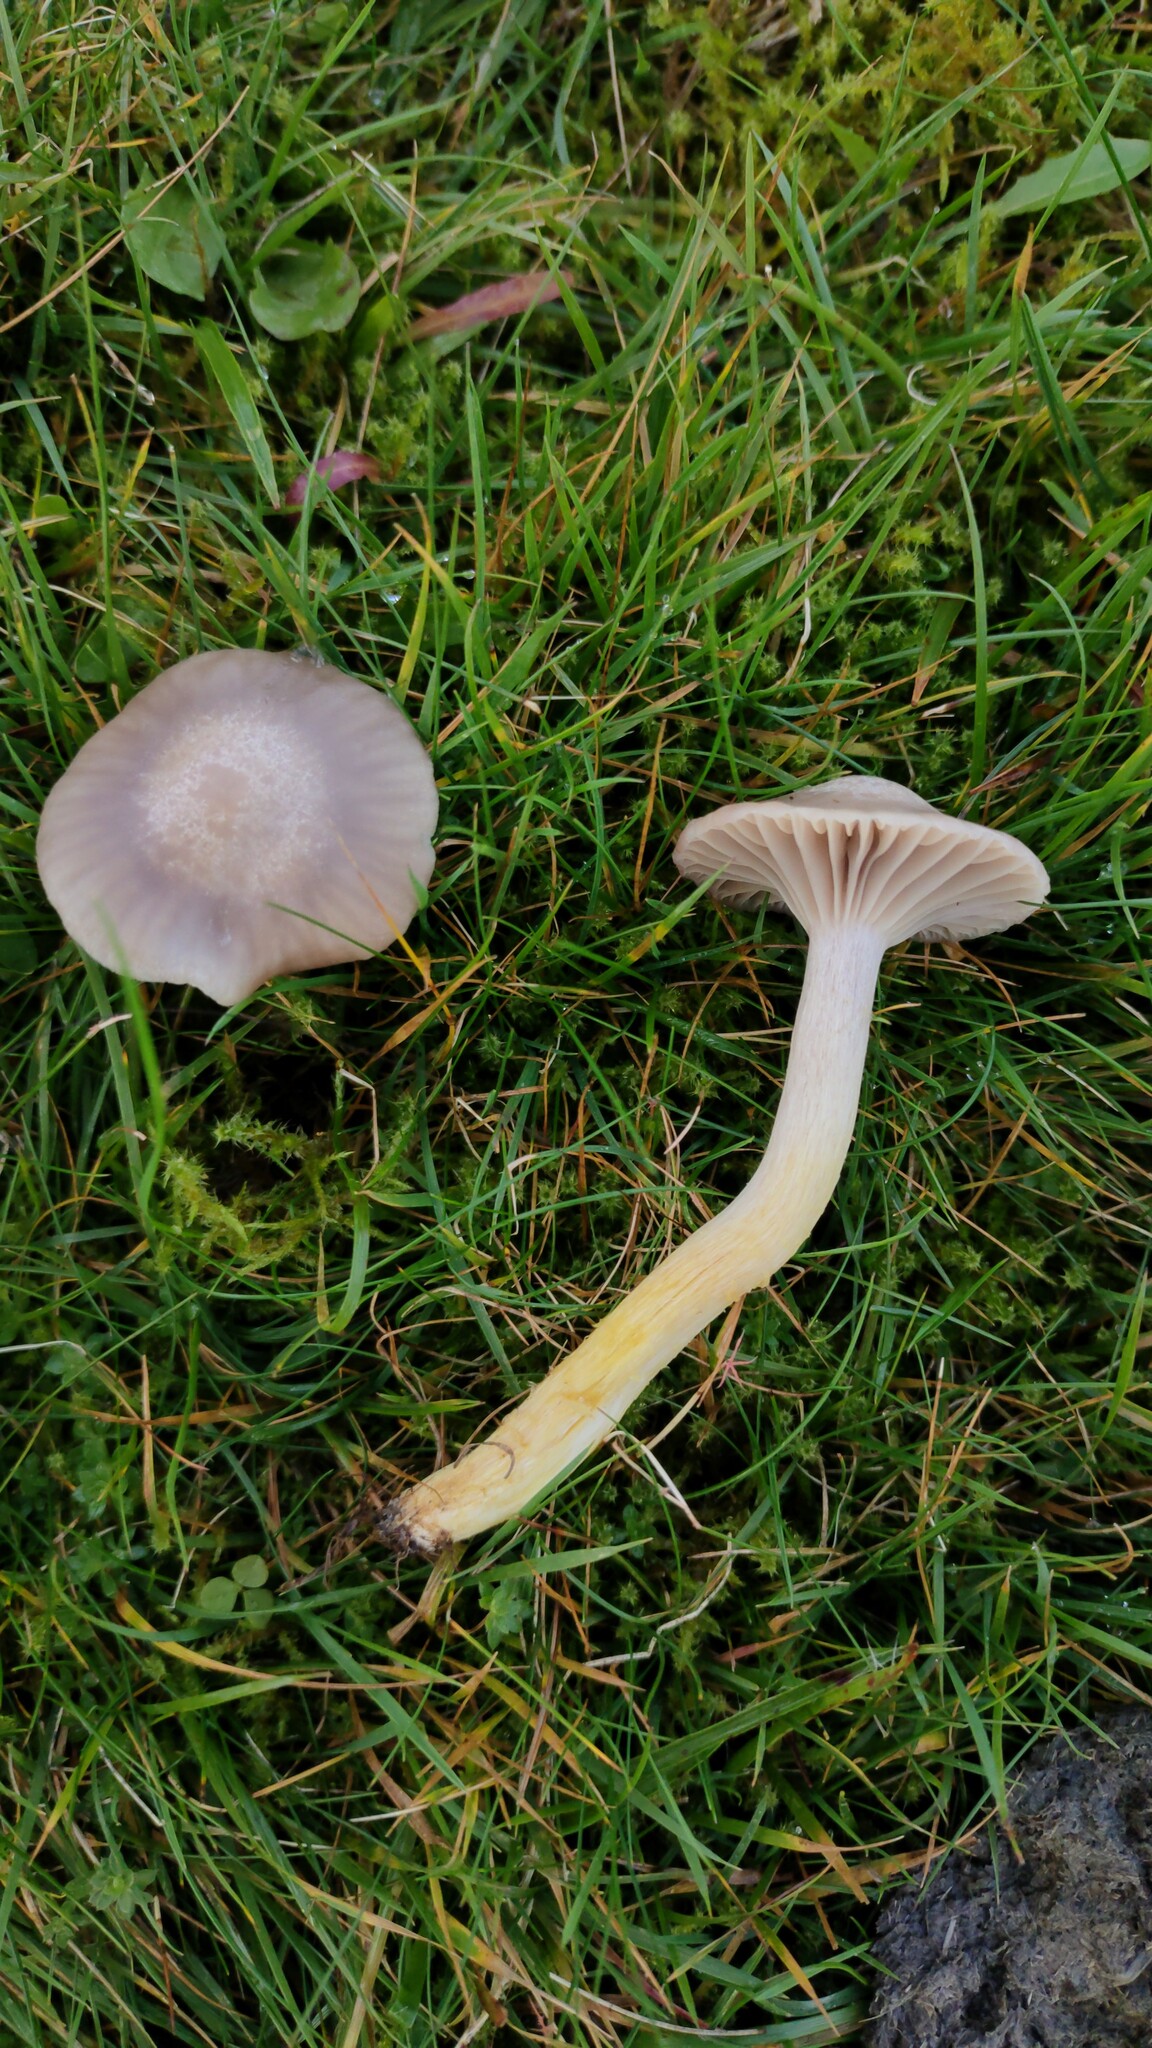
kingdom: Fungi
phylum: Basidiomycota
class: Agaricomycetes
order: Agaricales
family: Hygrophoraceae
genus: Cuphophyllus
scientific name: Cuphophyllus flavipes
